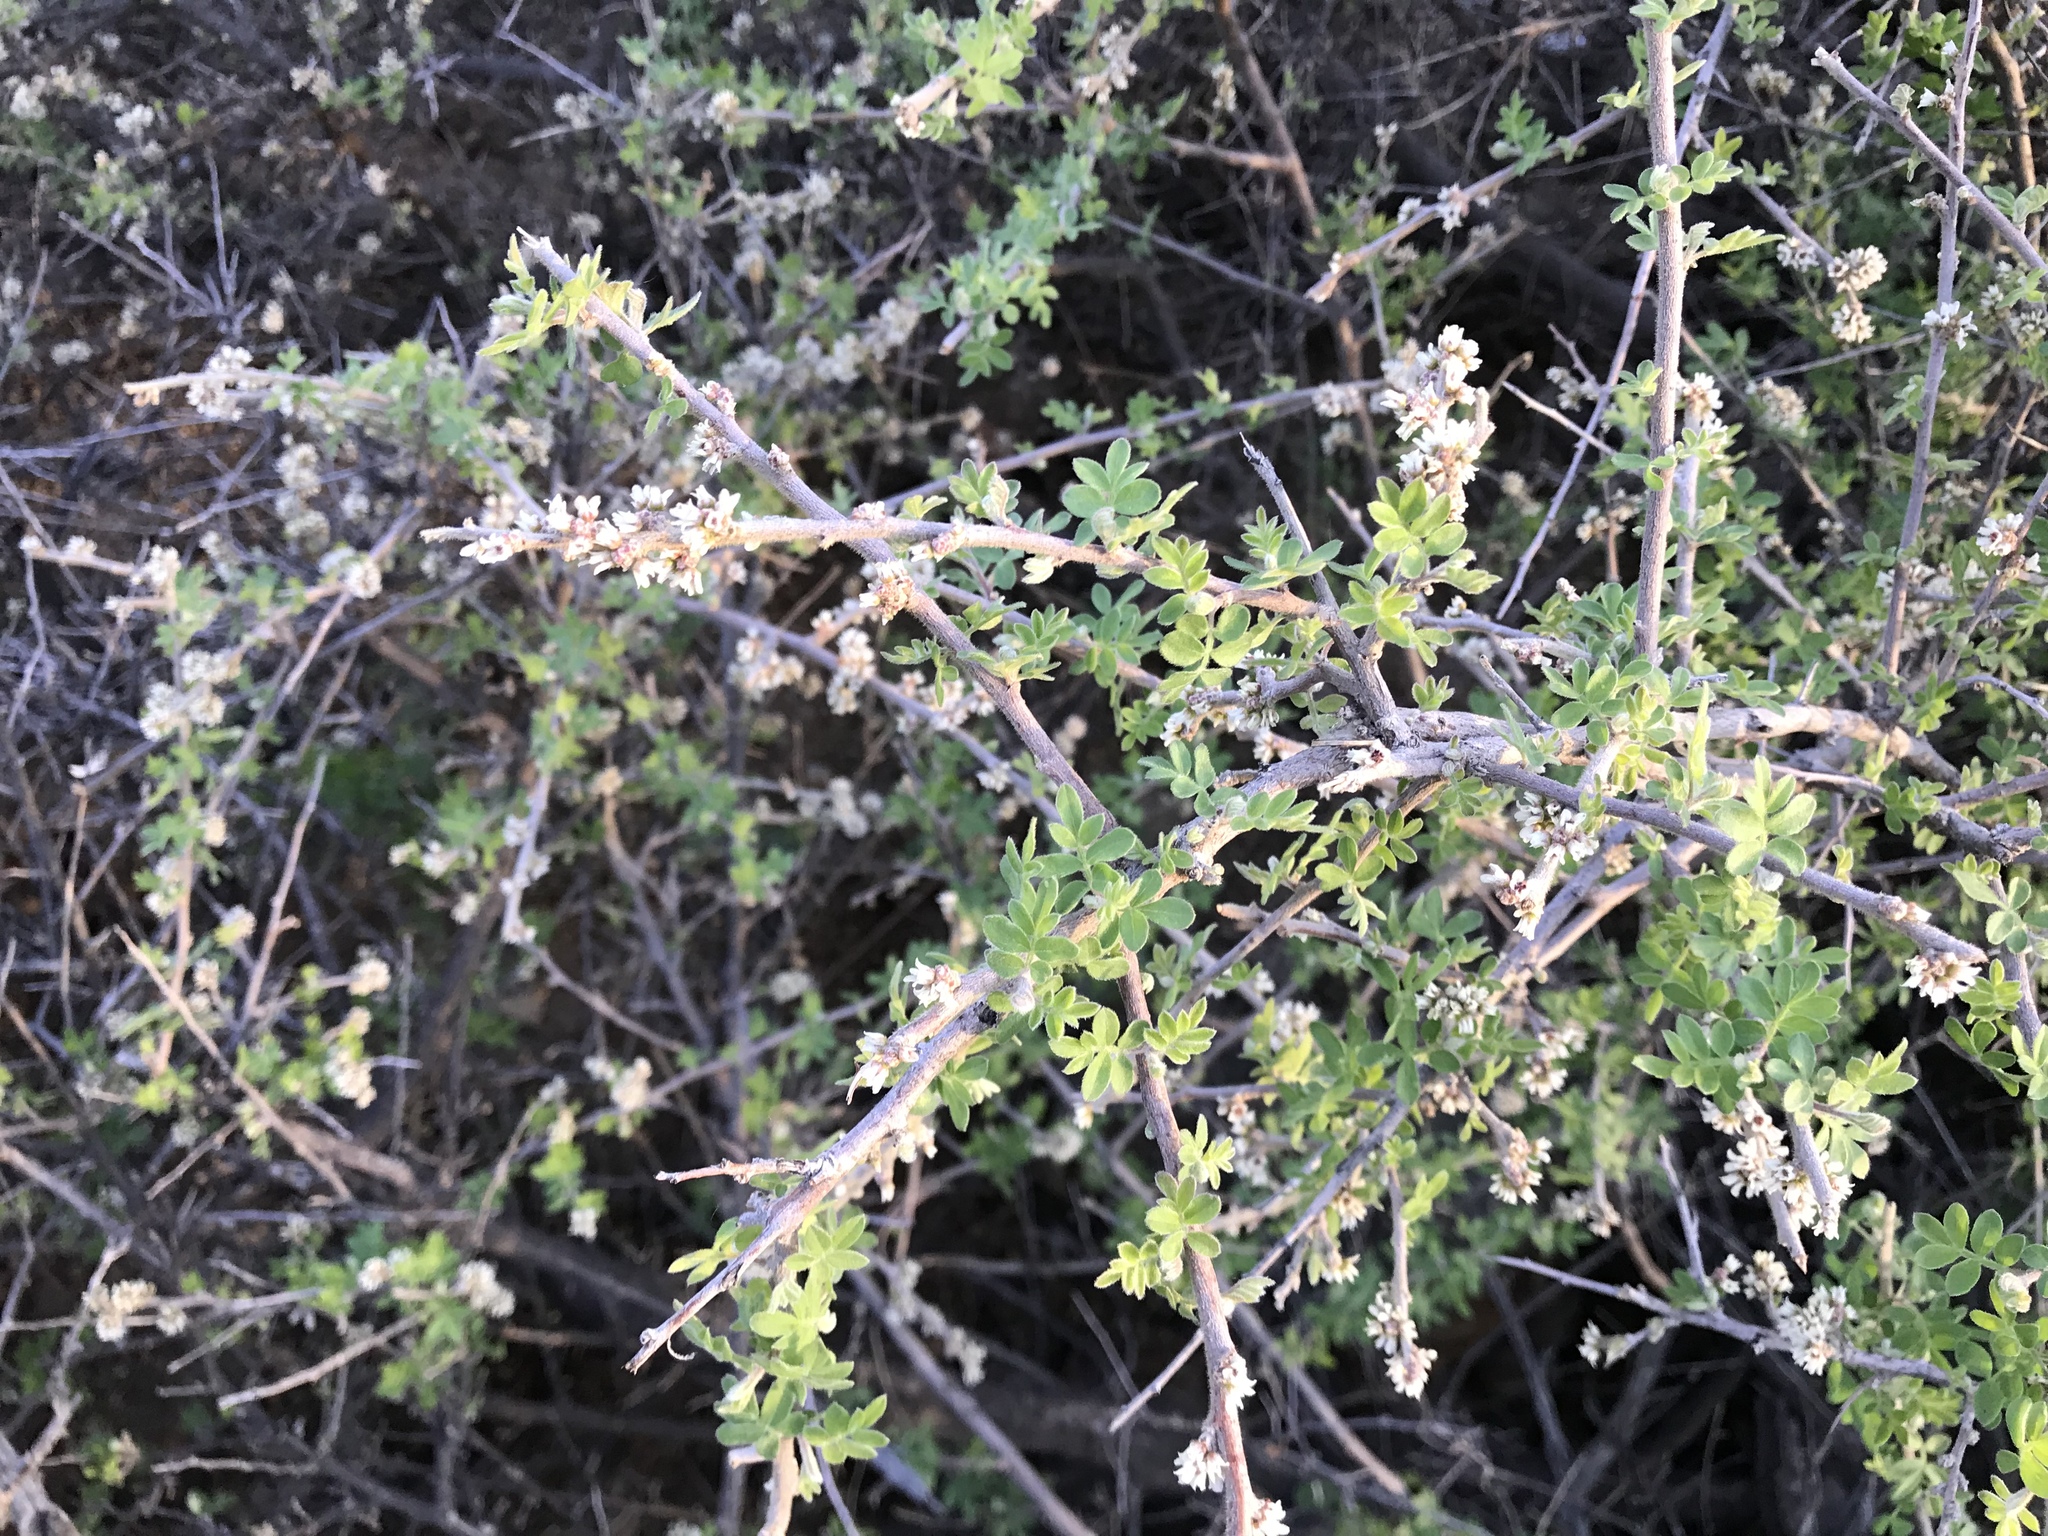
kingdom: Plantae
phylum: Tracheophyta
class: Magnoliopsida
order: Sapindales
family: Anacardiaceae
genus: Rhus
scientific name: Rhus microphylla
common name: Desert sumac
